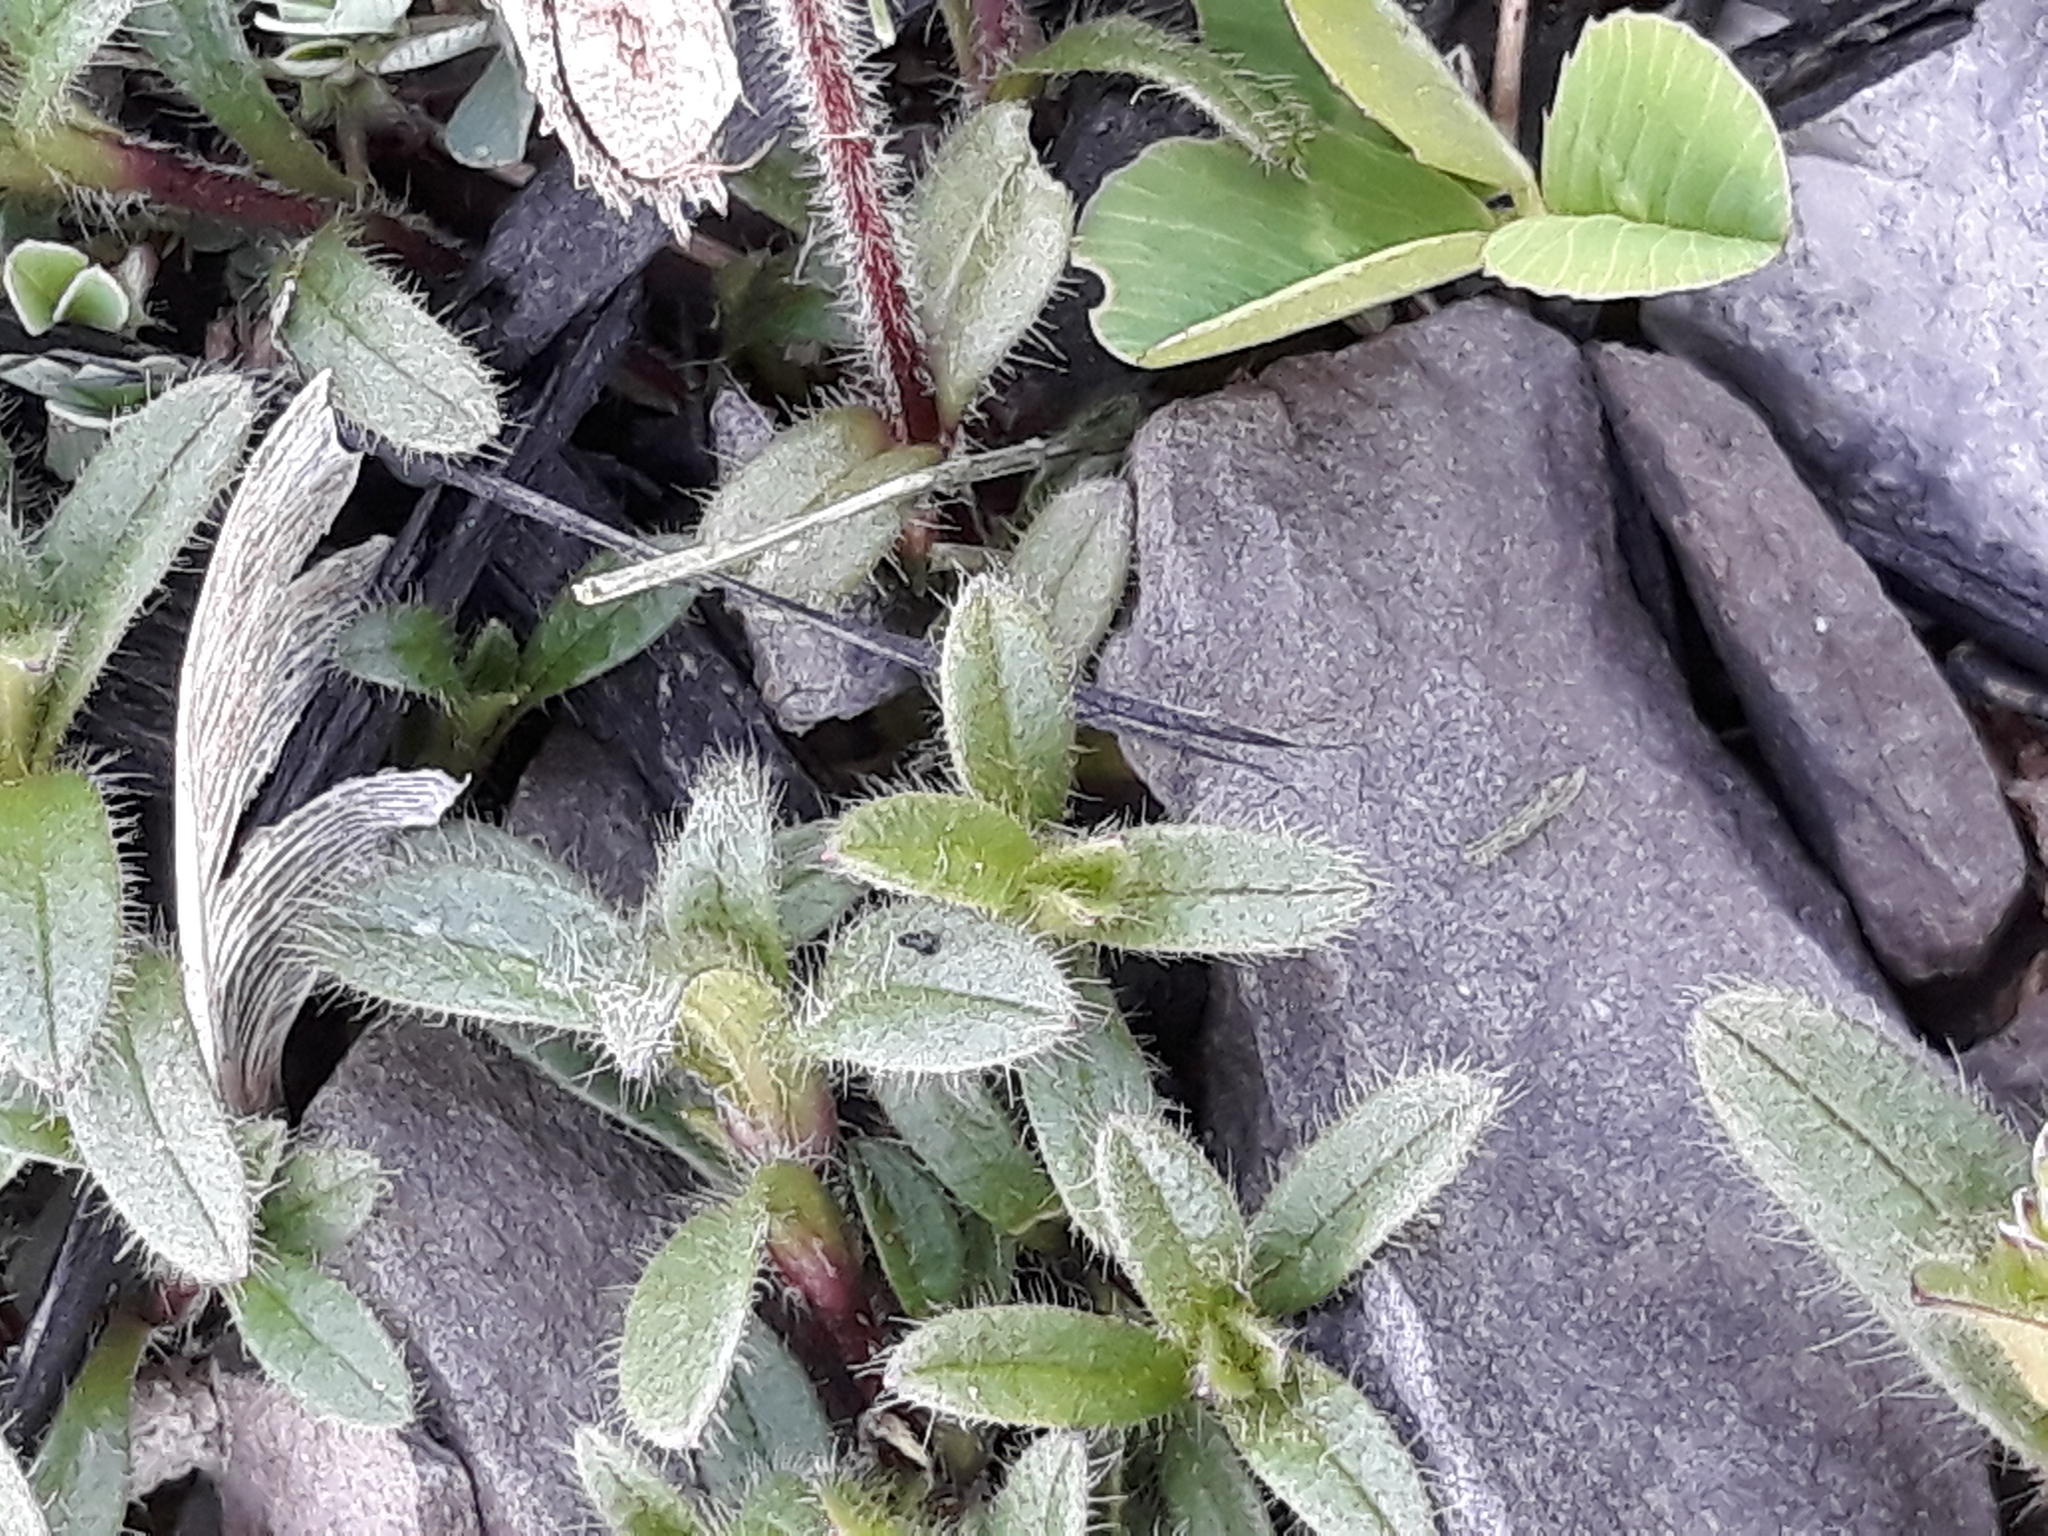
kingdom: Plantae
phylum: Tracheophyta
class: Magnoliopsida
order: Caryophyllales
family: Caryophyllaceae
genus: Cerastium
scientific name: Cerastium fontanum
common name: Common mouse-ear
